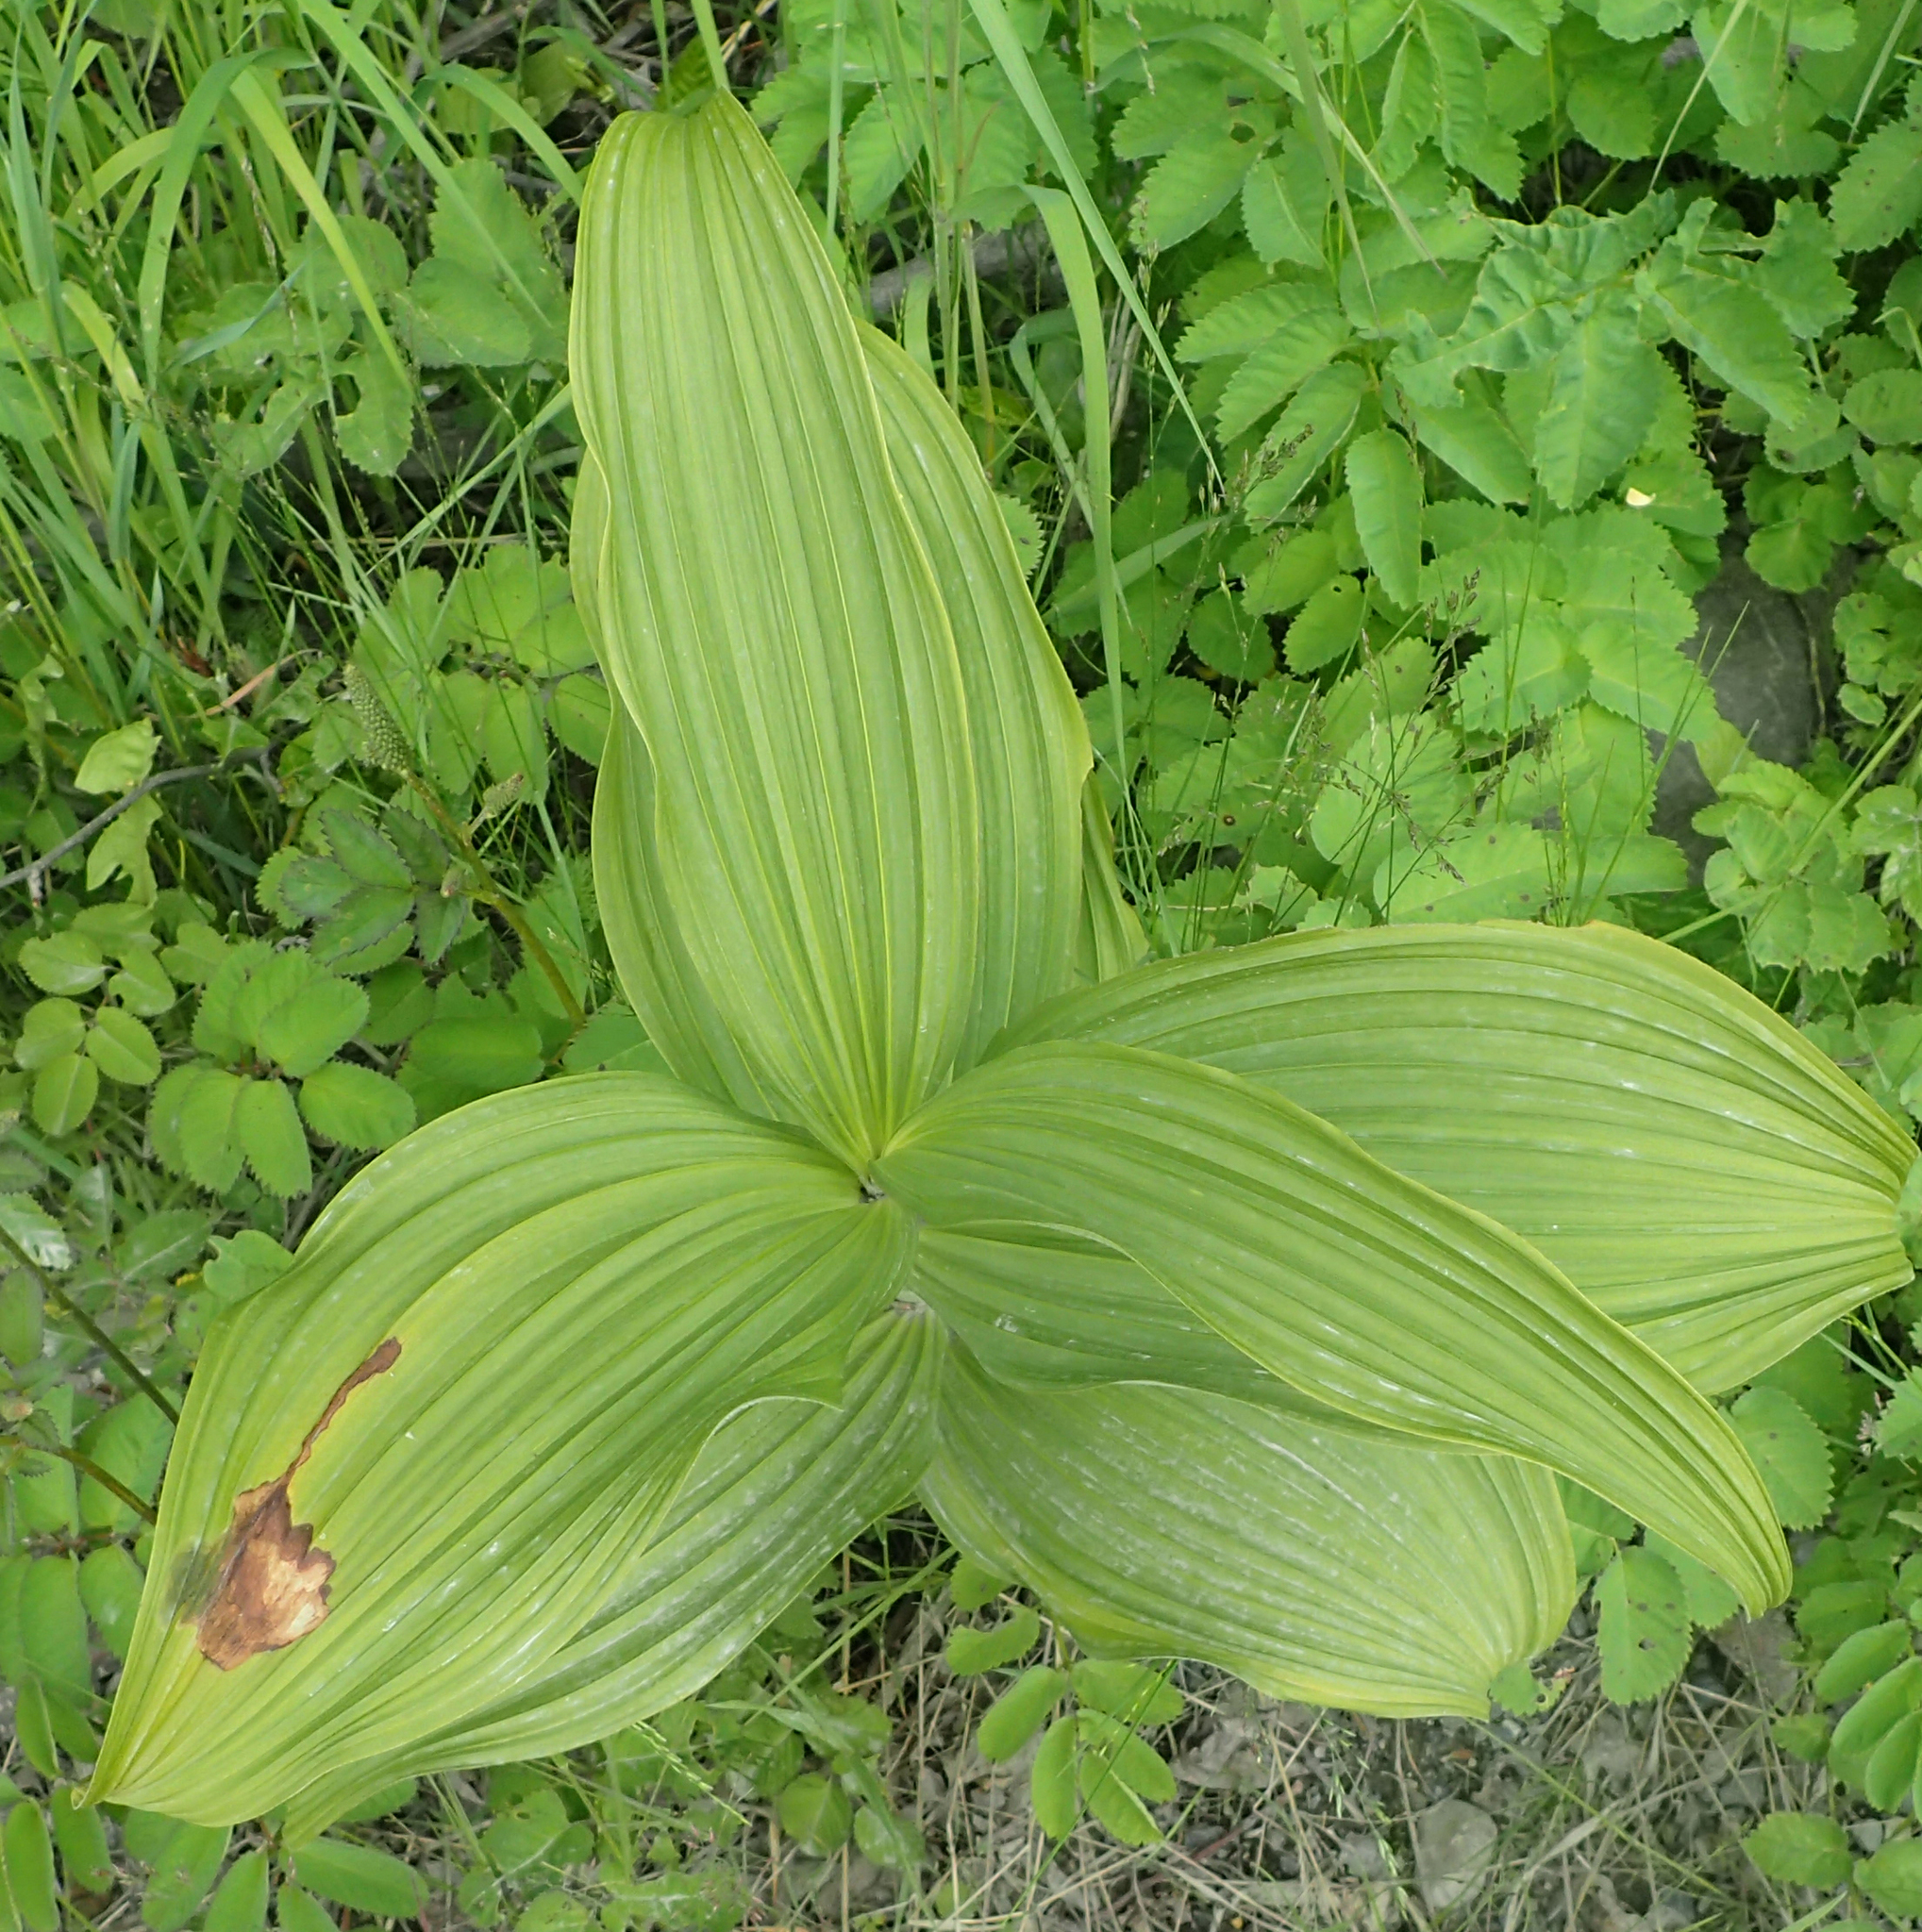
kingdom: Plantae
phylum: Tracheophyta
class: Liliopsida
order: Liliales
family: Melanthiaceae
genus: Veratrum
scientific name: Veratrum viride
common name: American false hellebore
